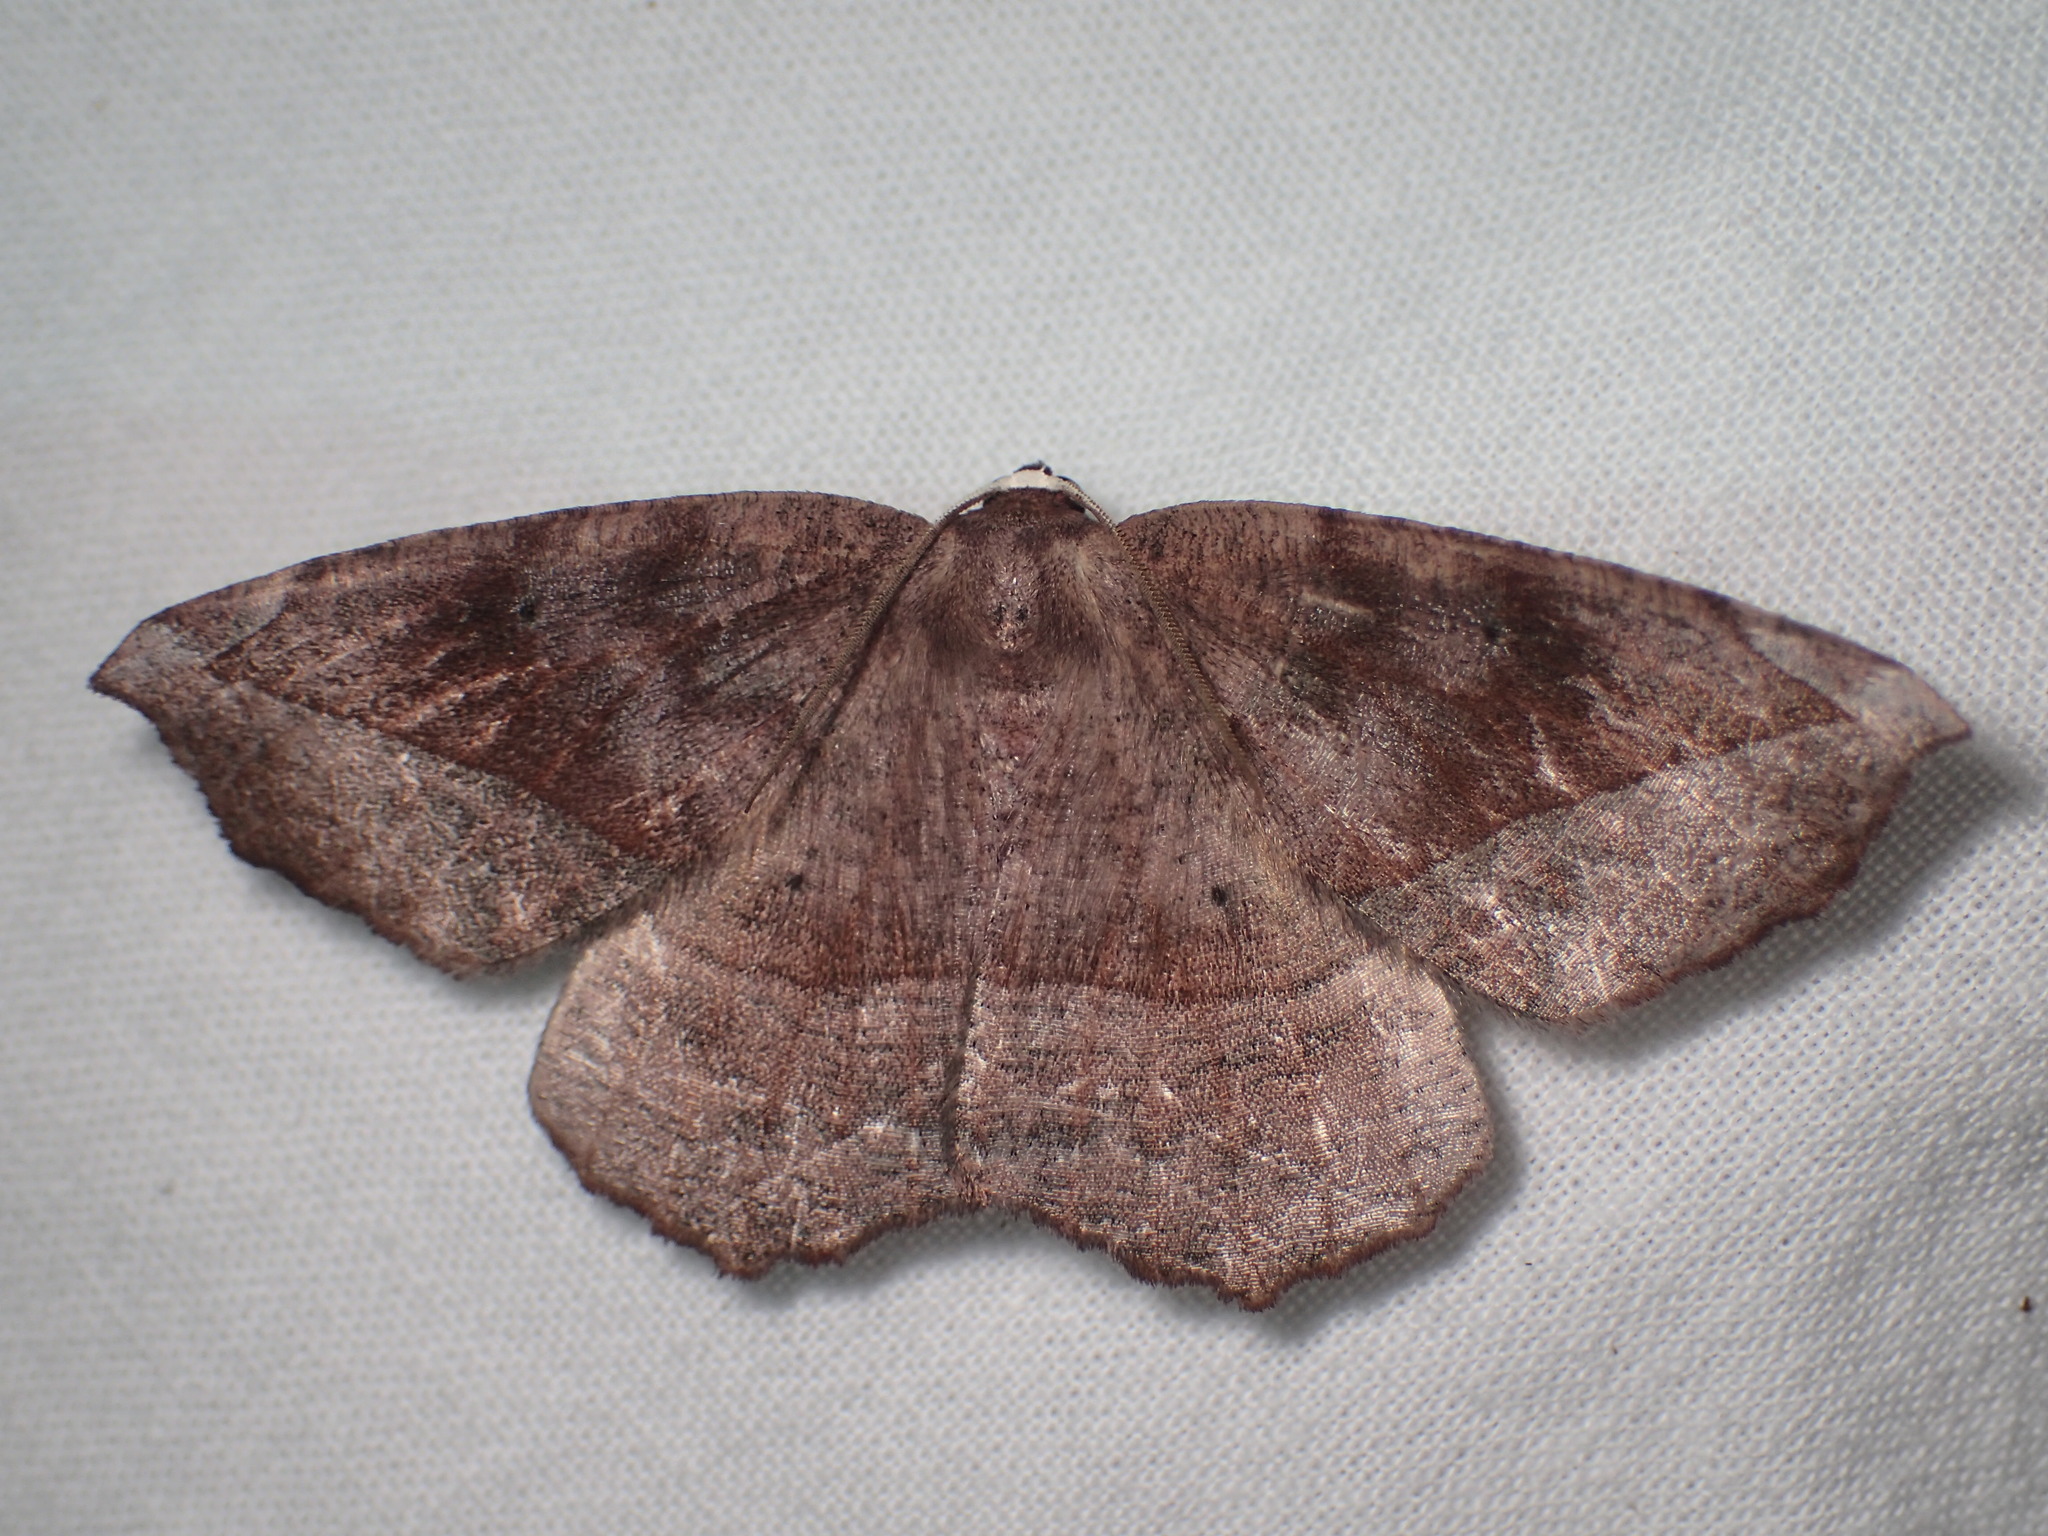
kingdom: Animalia
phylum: Arthropoda
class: Insecta
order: Lepidoptera
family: Geometridae
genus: Eutrapela
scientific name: Eutrapela clemataria
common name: Curved-toothed geometer
